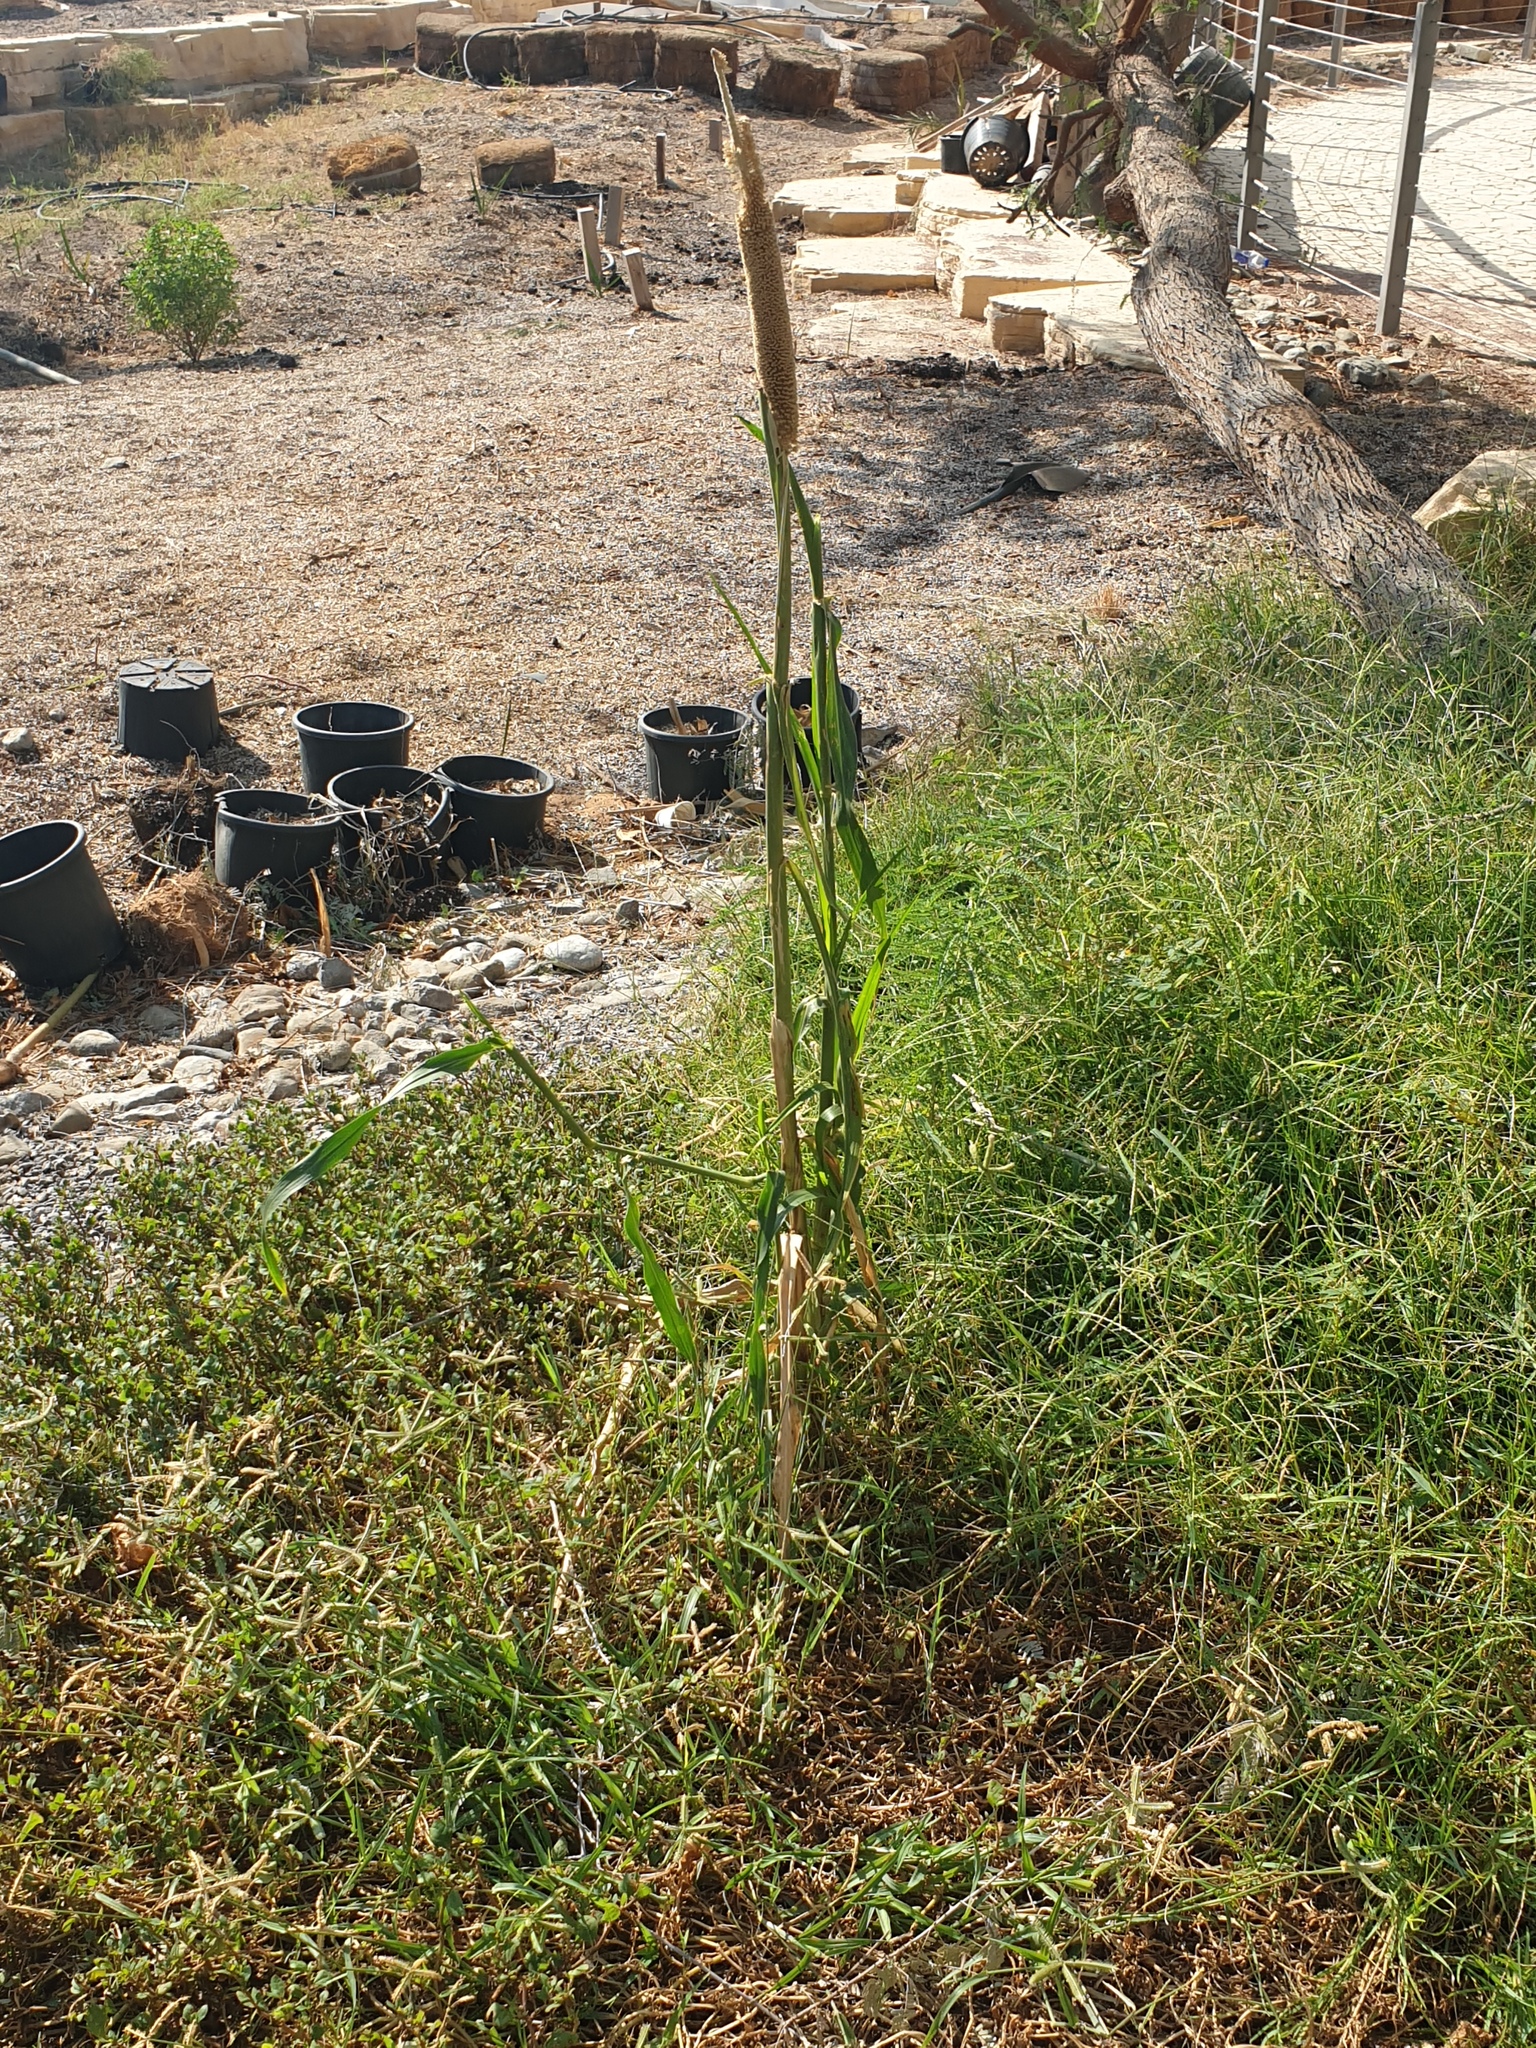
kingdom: Plantae
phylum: Tracheophyta
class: Liliopsida
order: Poales
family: Poaceae
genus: Cenchrus
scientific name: Cenchrus americanus
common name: Pearl millet
